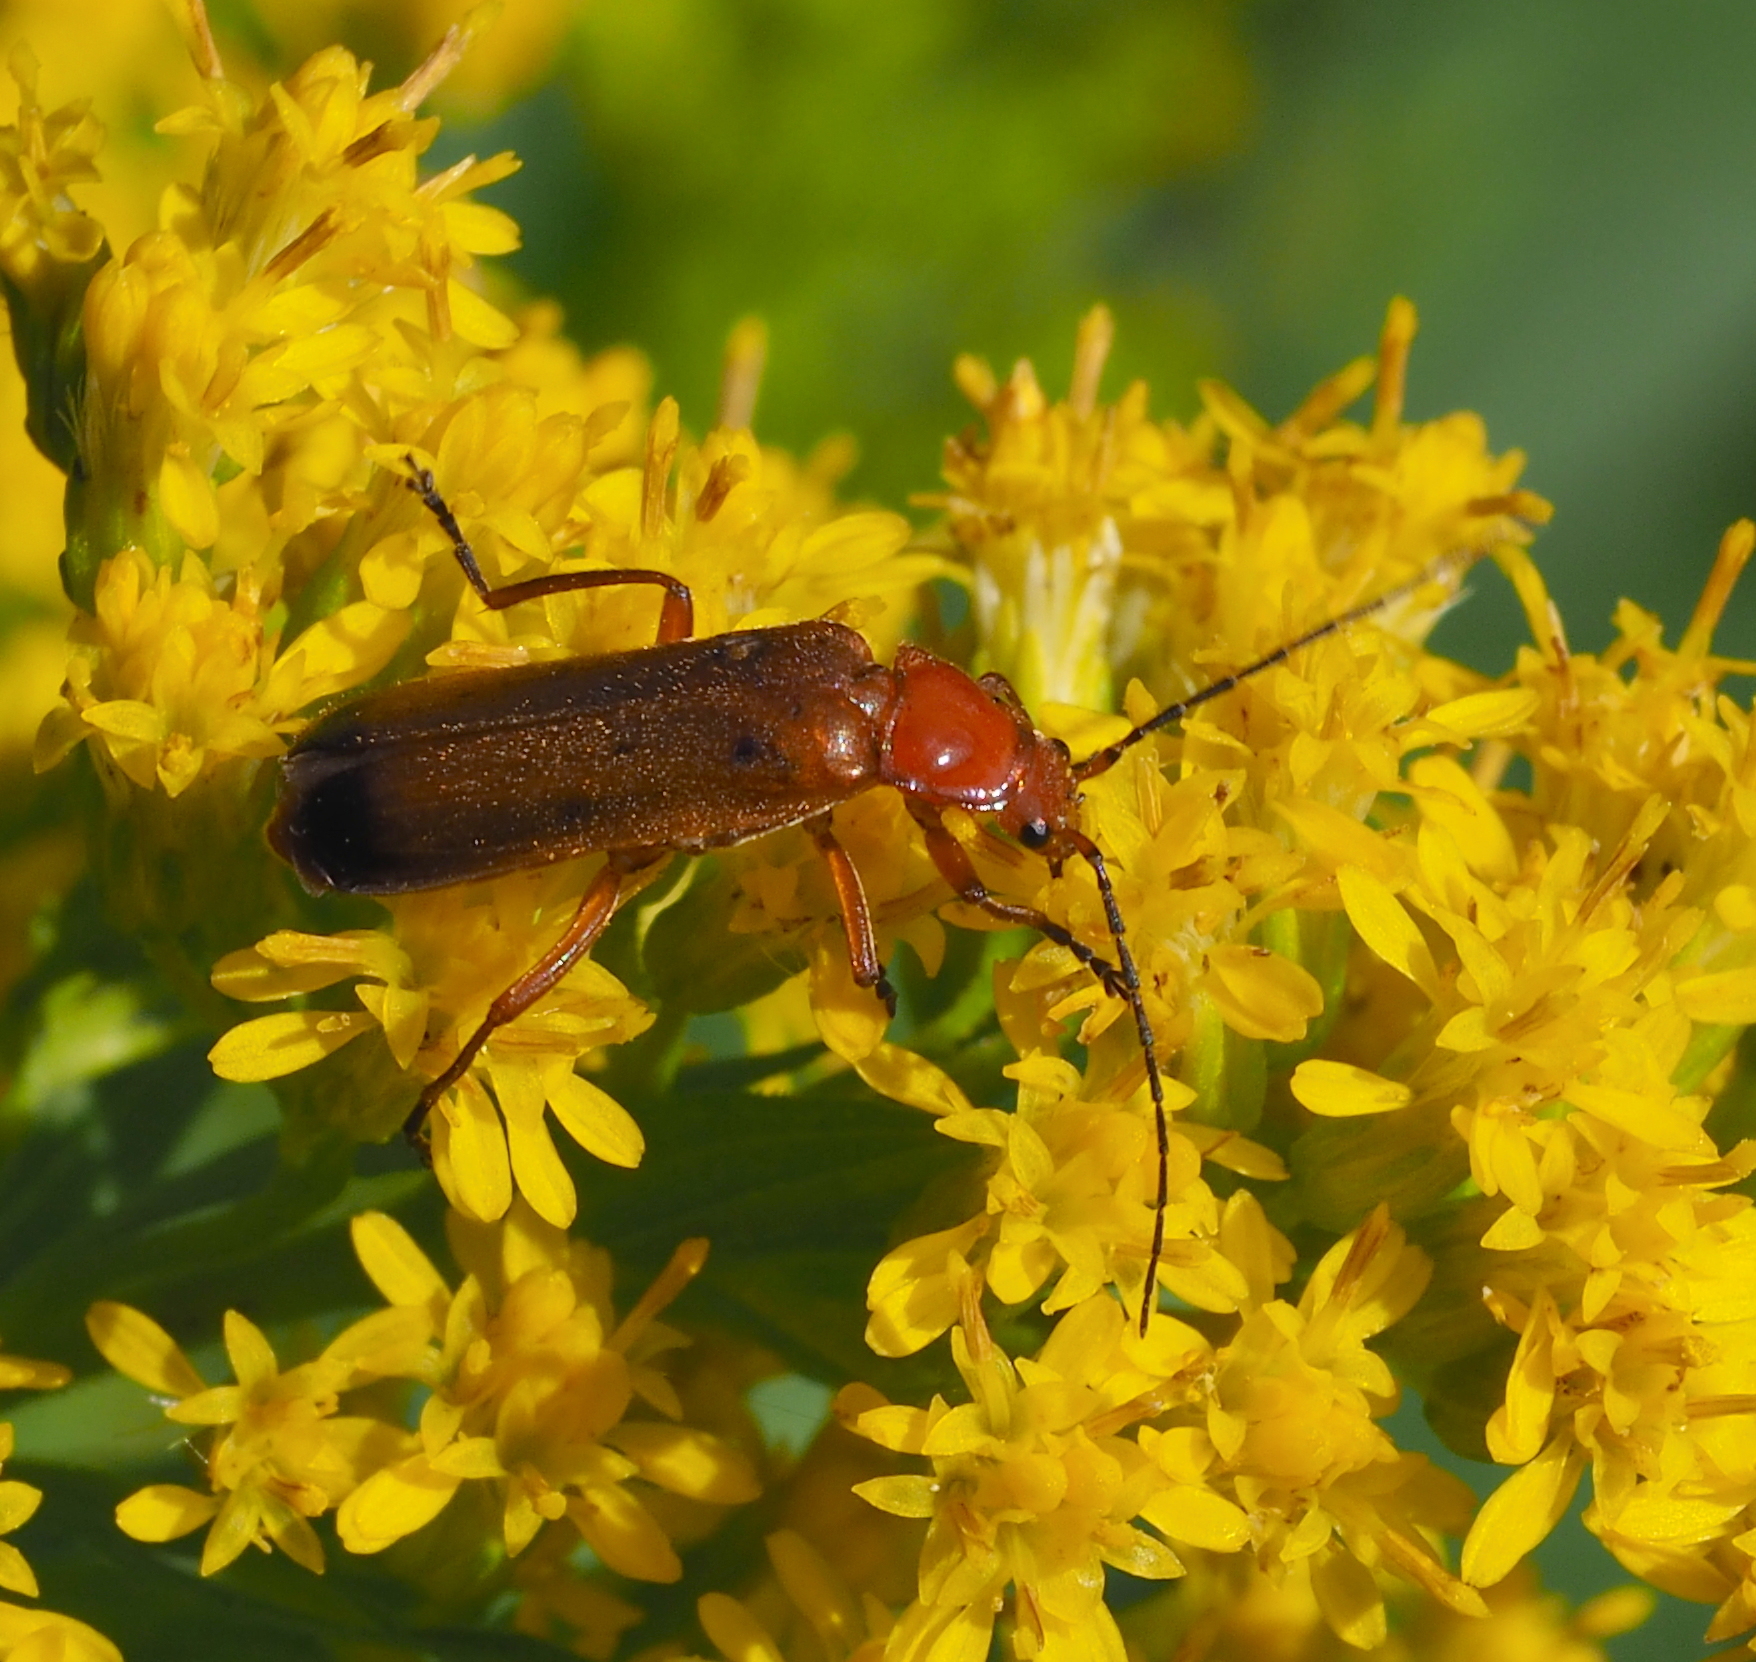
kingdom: Animalia
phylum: Arthropoda
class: Insecta
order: Coleoptera
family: Cantharidae
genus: Rhagonycha
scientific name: Rhagonycha fulva
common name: Common red soldier beetle
